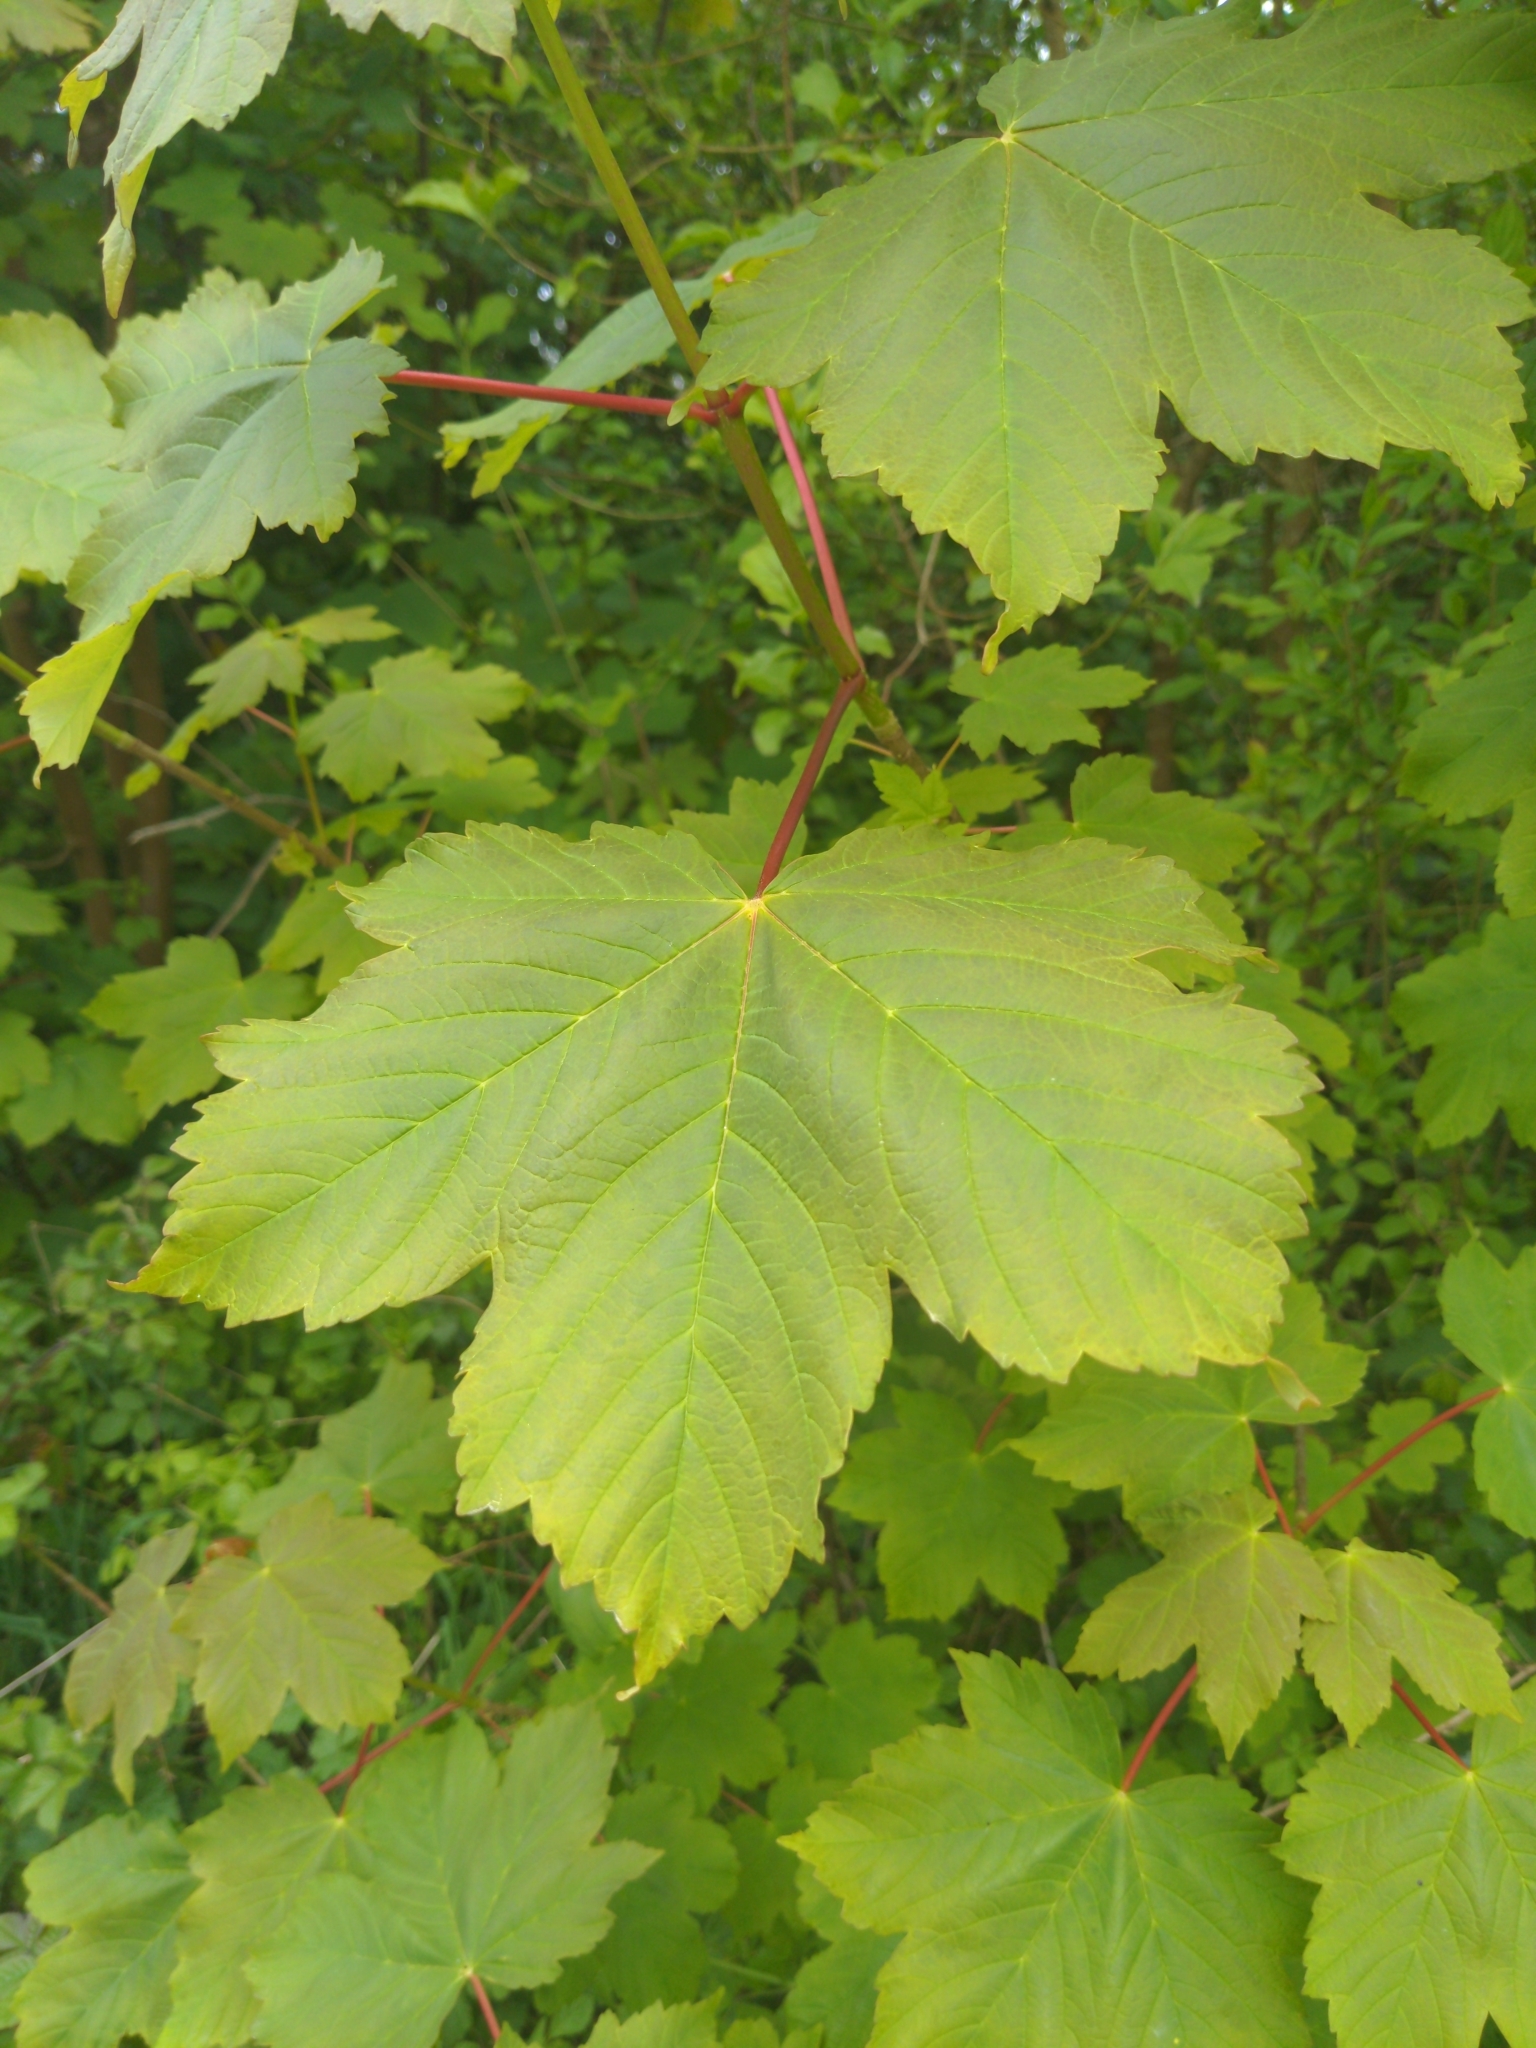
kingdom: Plantae
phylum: Tracheophyta
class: Magnoliopsida
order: Sapindales
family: Sapindaceae
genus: Acer
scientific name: Acer pseudoplatanus
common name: Sycamore
